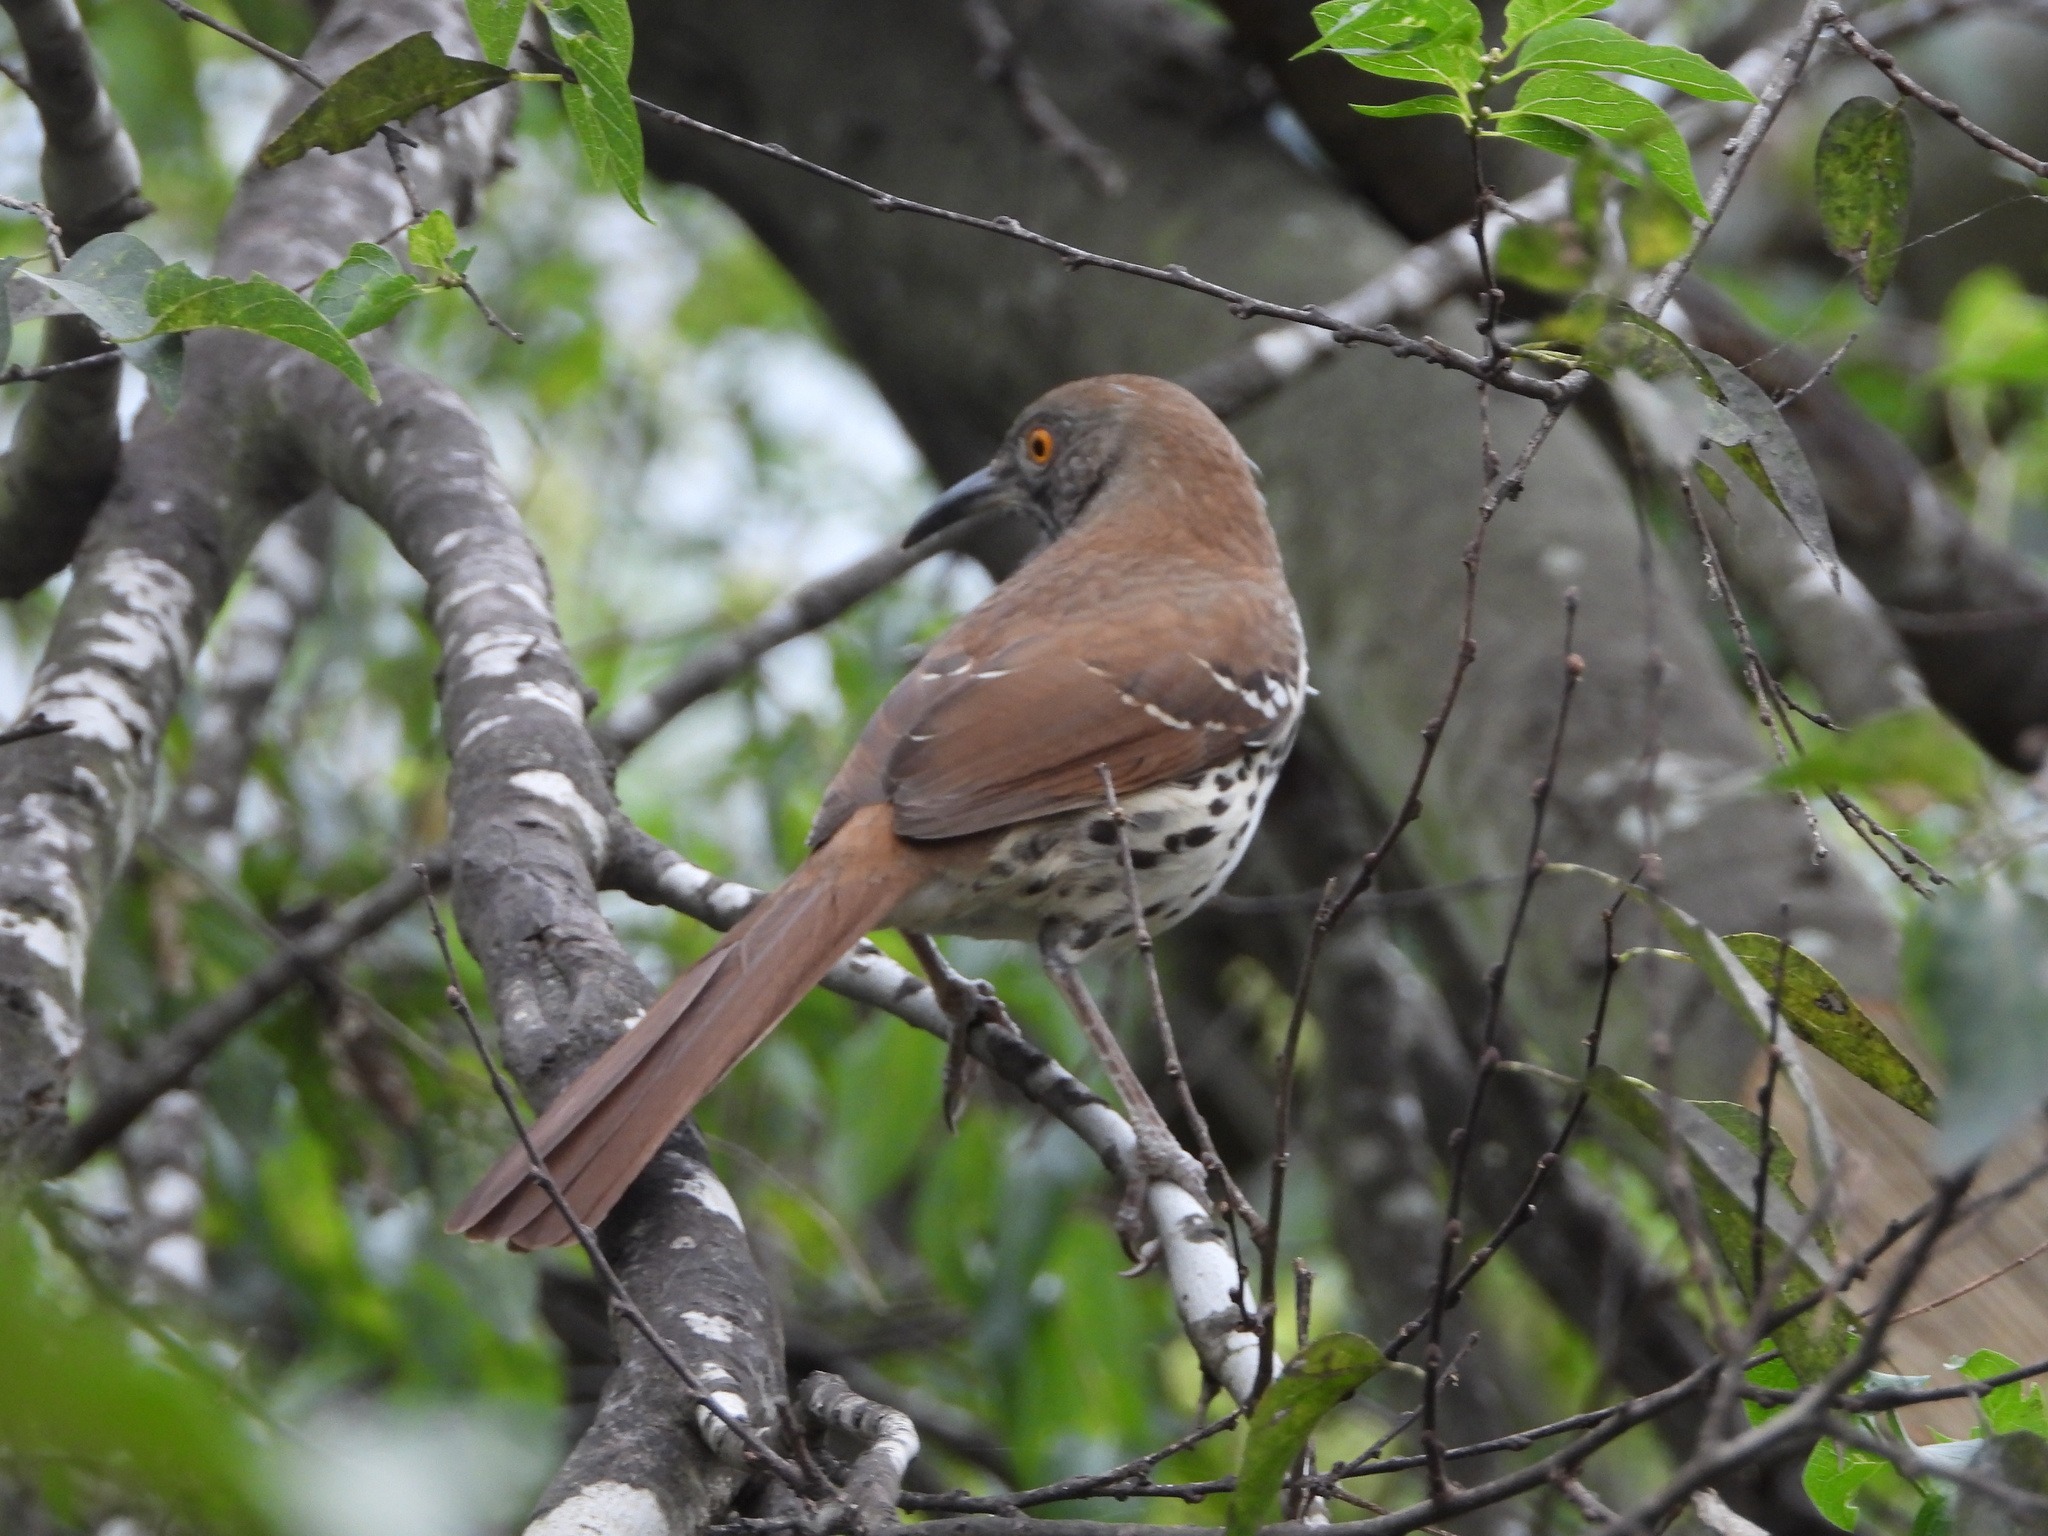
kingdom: Animalia
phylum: Chordata
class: Aves
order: Passeriformes
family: Mimidae
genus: Toxostoma
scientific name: Toxostoma longirostre
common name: Long-billed thrasher
